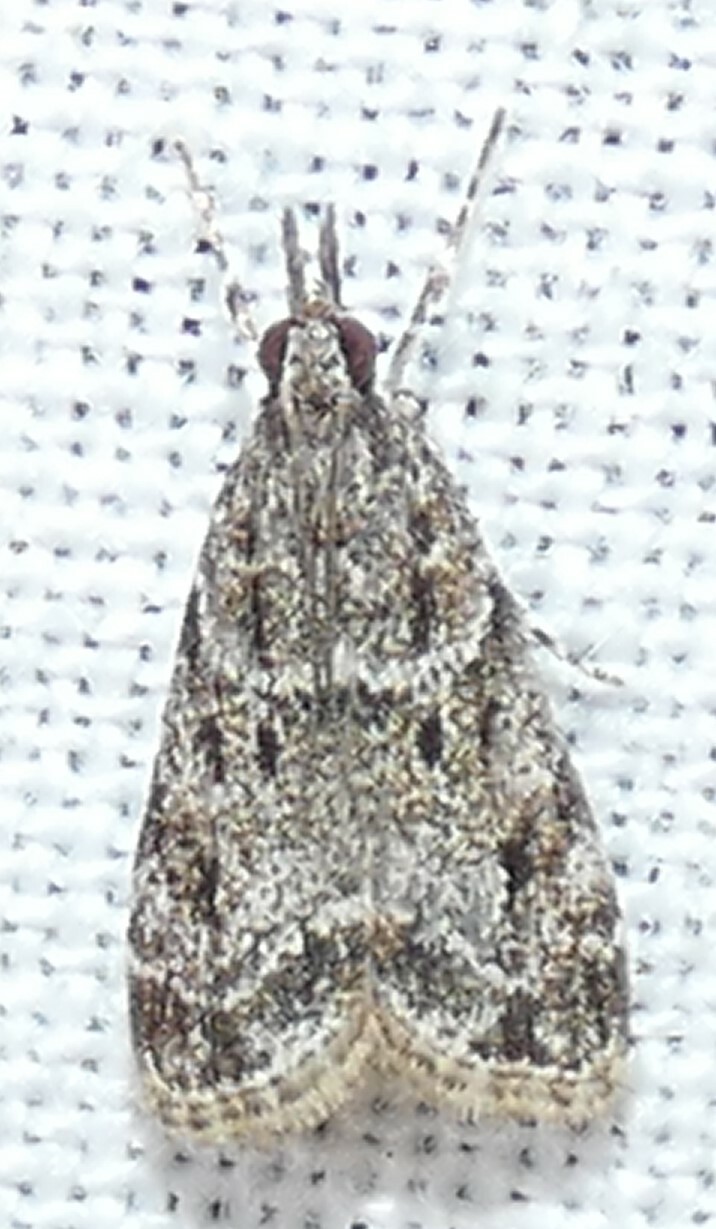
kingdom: Animalia
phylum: Arthropoda
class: Insecta
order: Lepidoptera
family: Crambidae
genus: Eudonia
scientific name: Eudonia heterosalis
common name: Mcdunnough's eudonia
